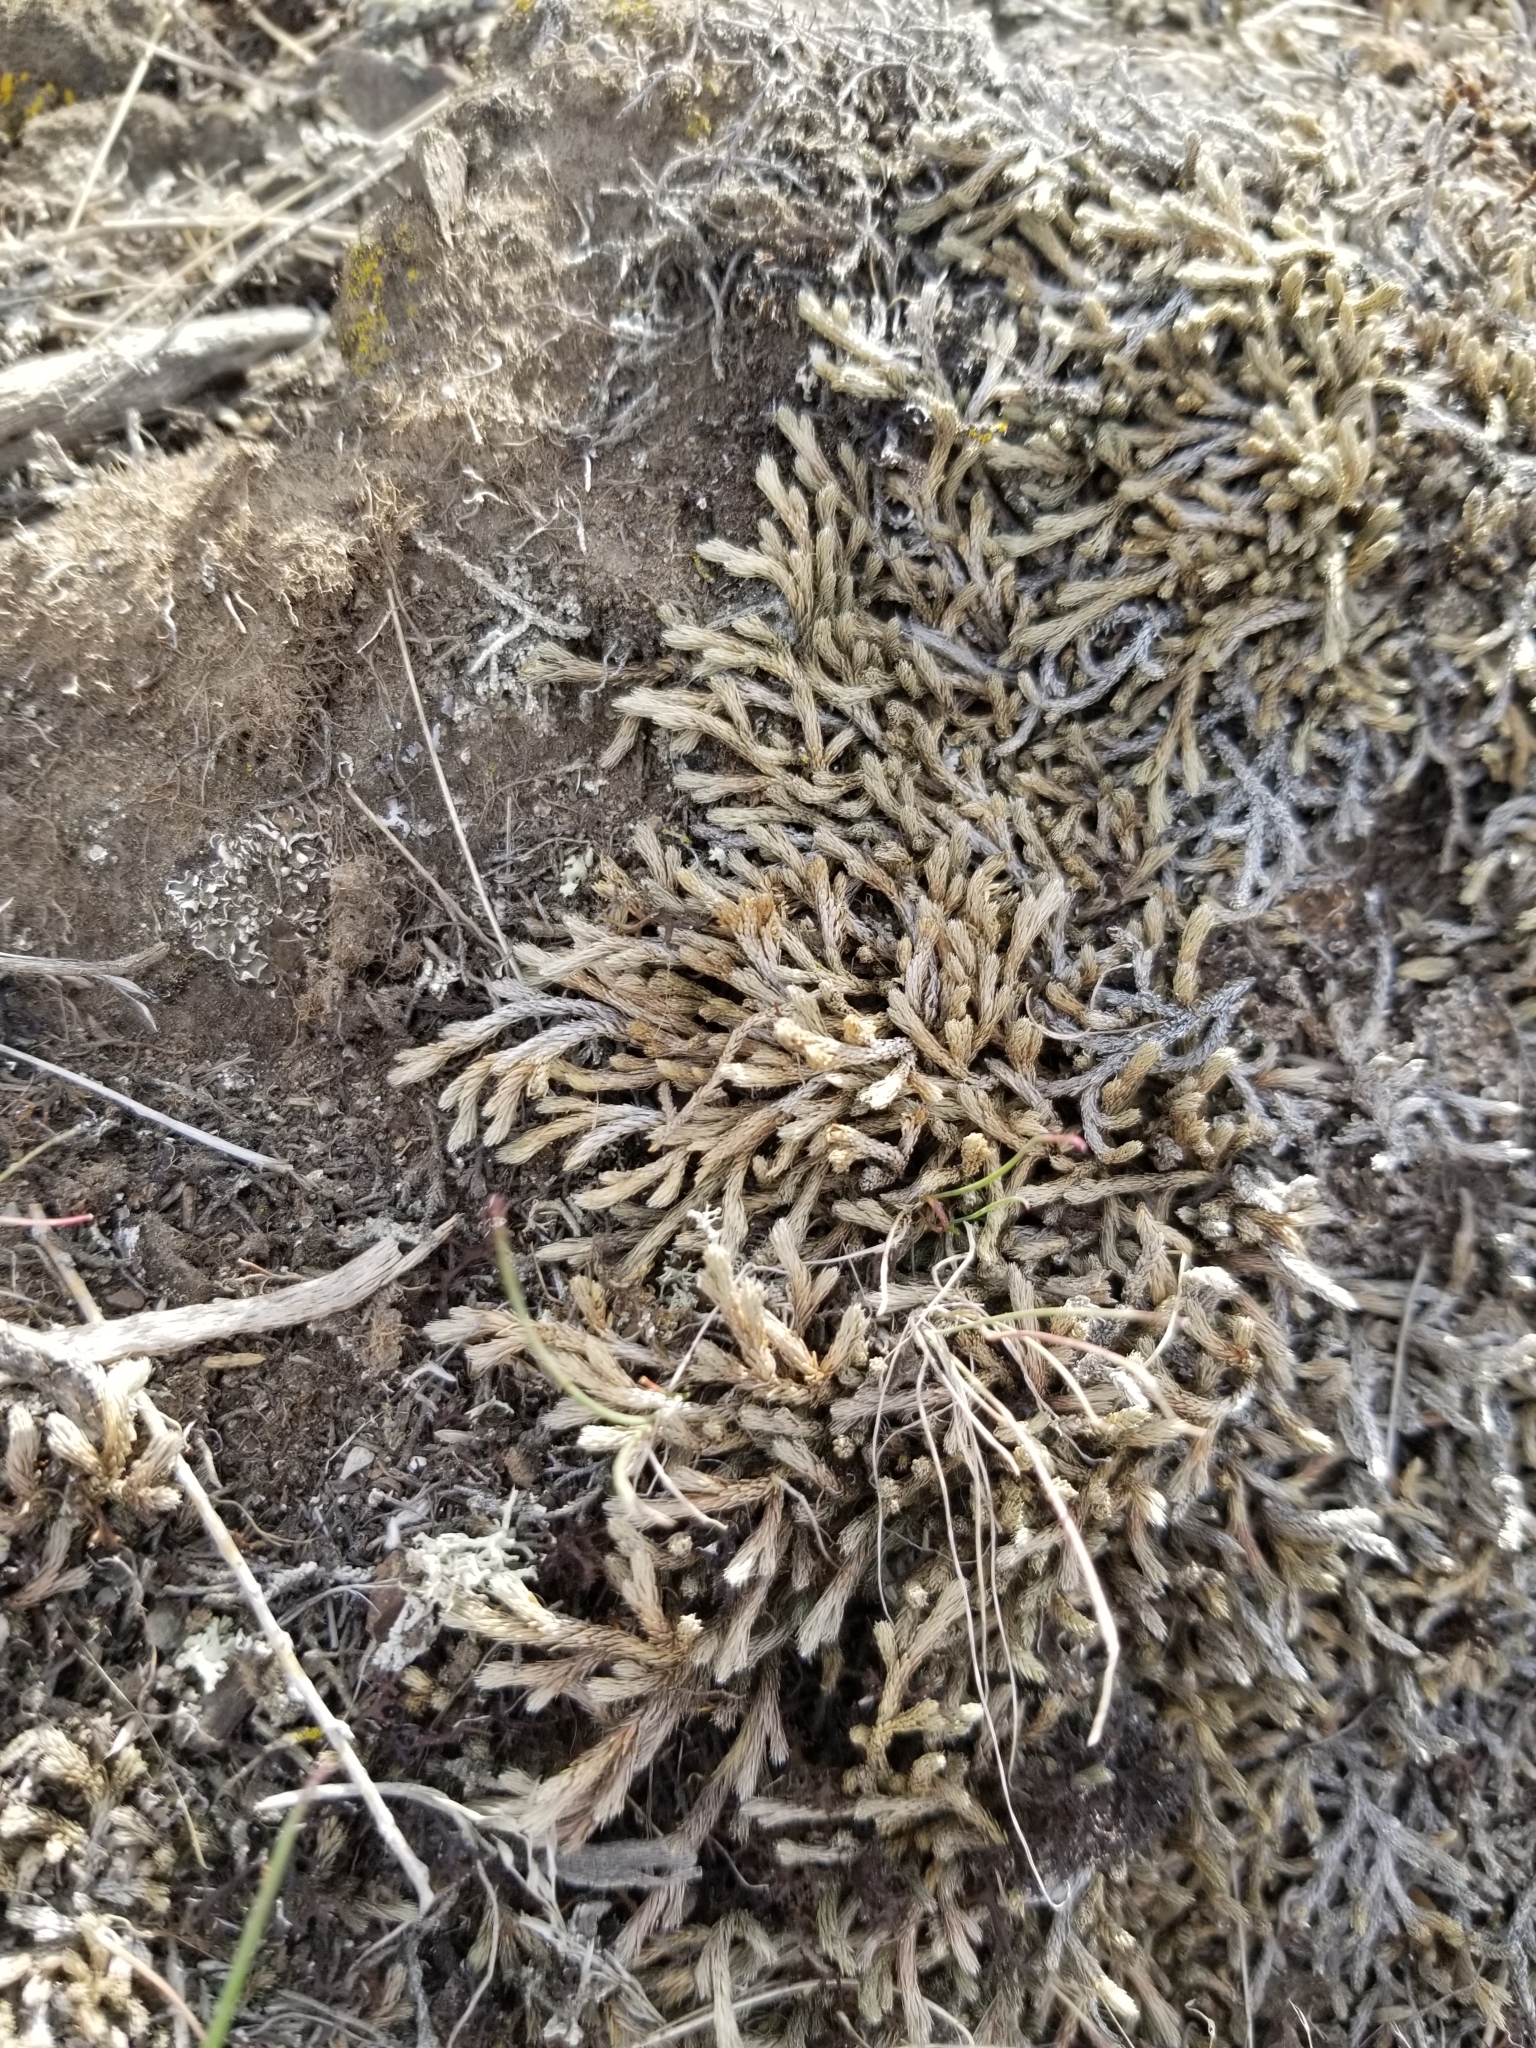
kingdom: Plantae
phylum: Tracheophyta
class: Lycopodiopsida
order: Selaginellales
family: Selaginellaceae
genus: Selaginella
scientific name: Selaginella wallacei
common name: Wallace's selaginella
